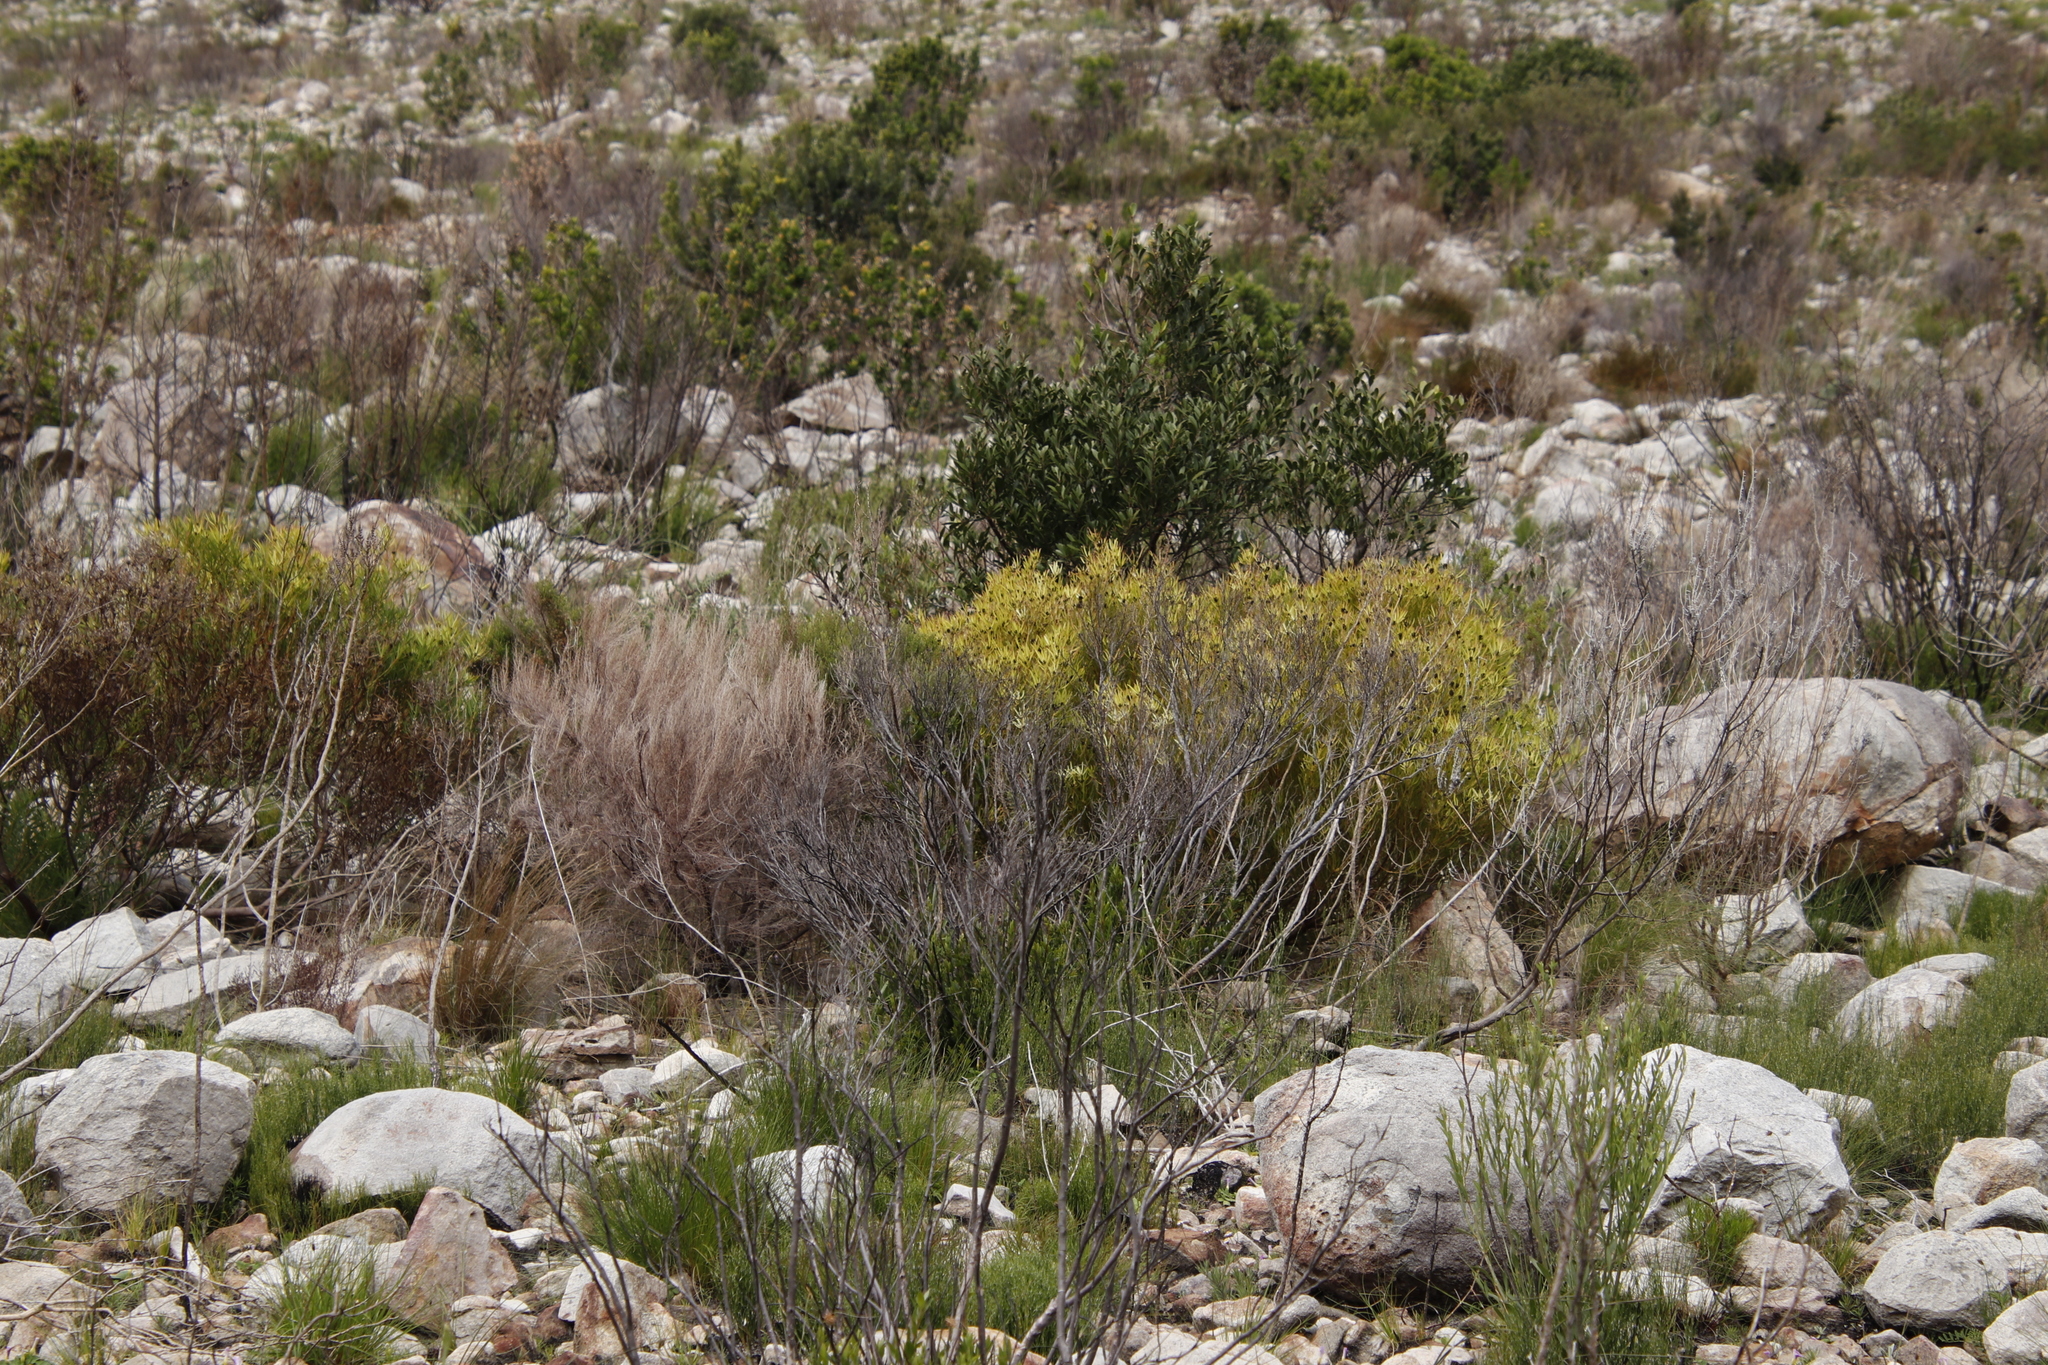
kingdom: Plantae
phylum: Tracheophyta
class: Magnoliopsida
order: Proteales
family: Proteaceae
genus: Leucadendron
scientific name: Leucadendron salignum
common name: Common sunshine conebush
